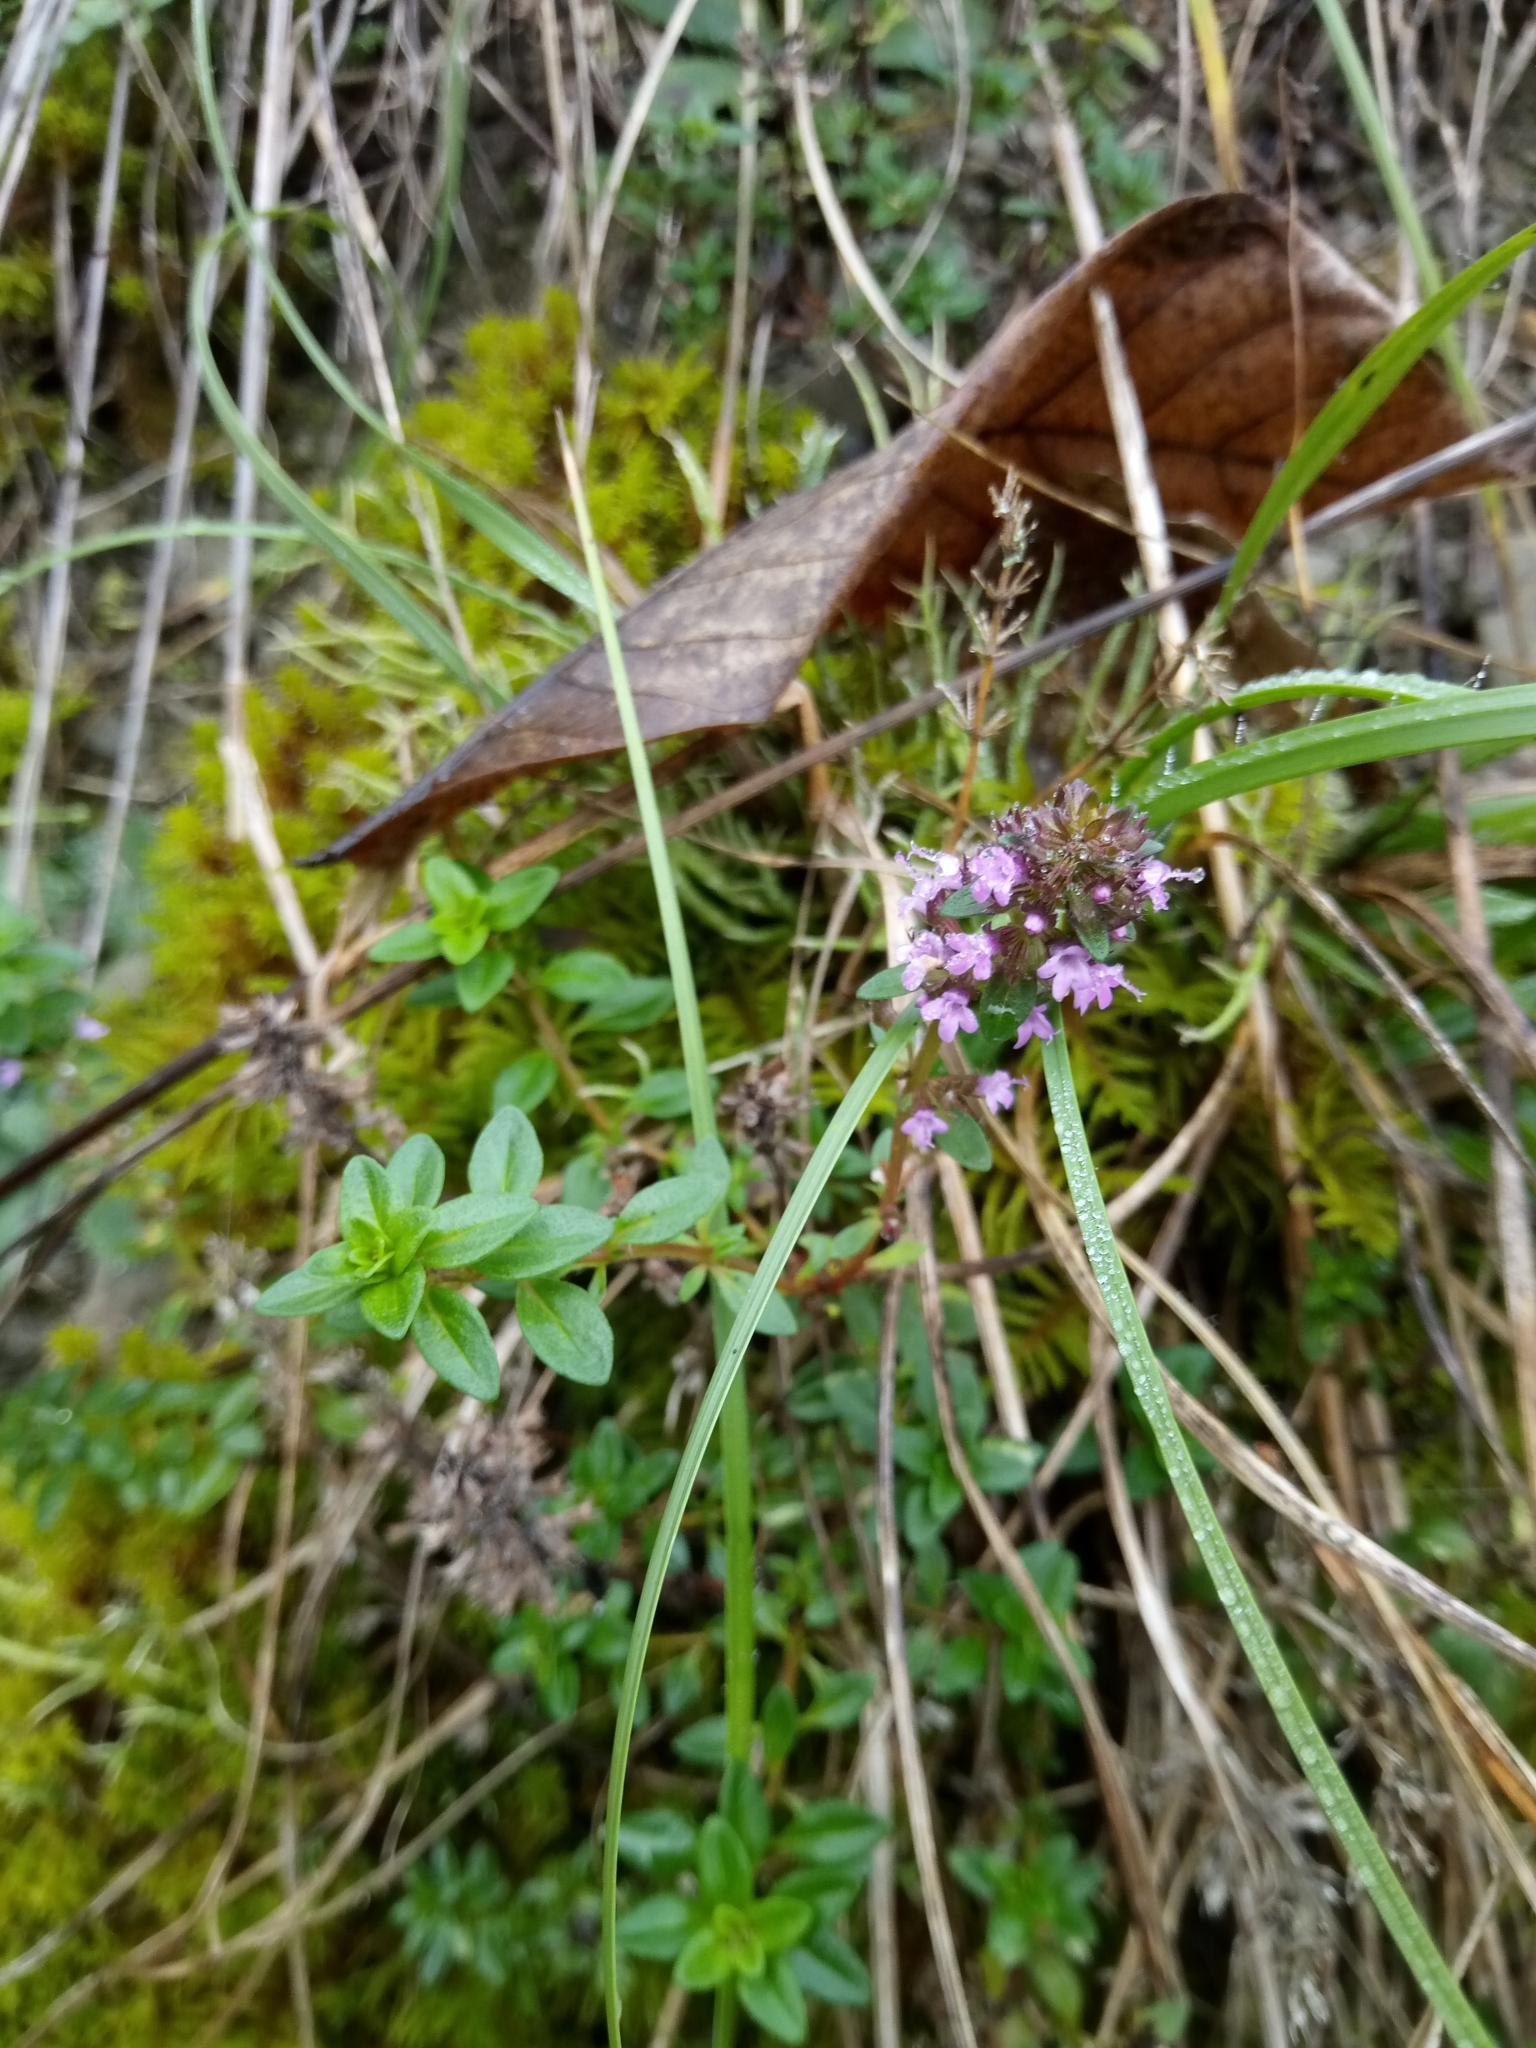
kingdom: Plantae
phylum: Tracheophyta
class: Magnoliopsida
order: Lamiales
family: Lamiaceae
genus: Thymus
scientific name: Thymus pulegioides
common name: Large thyme
